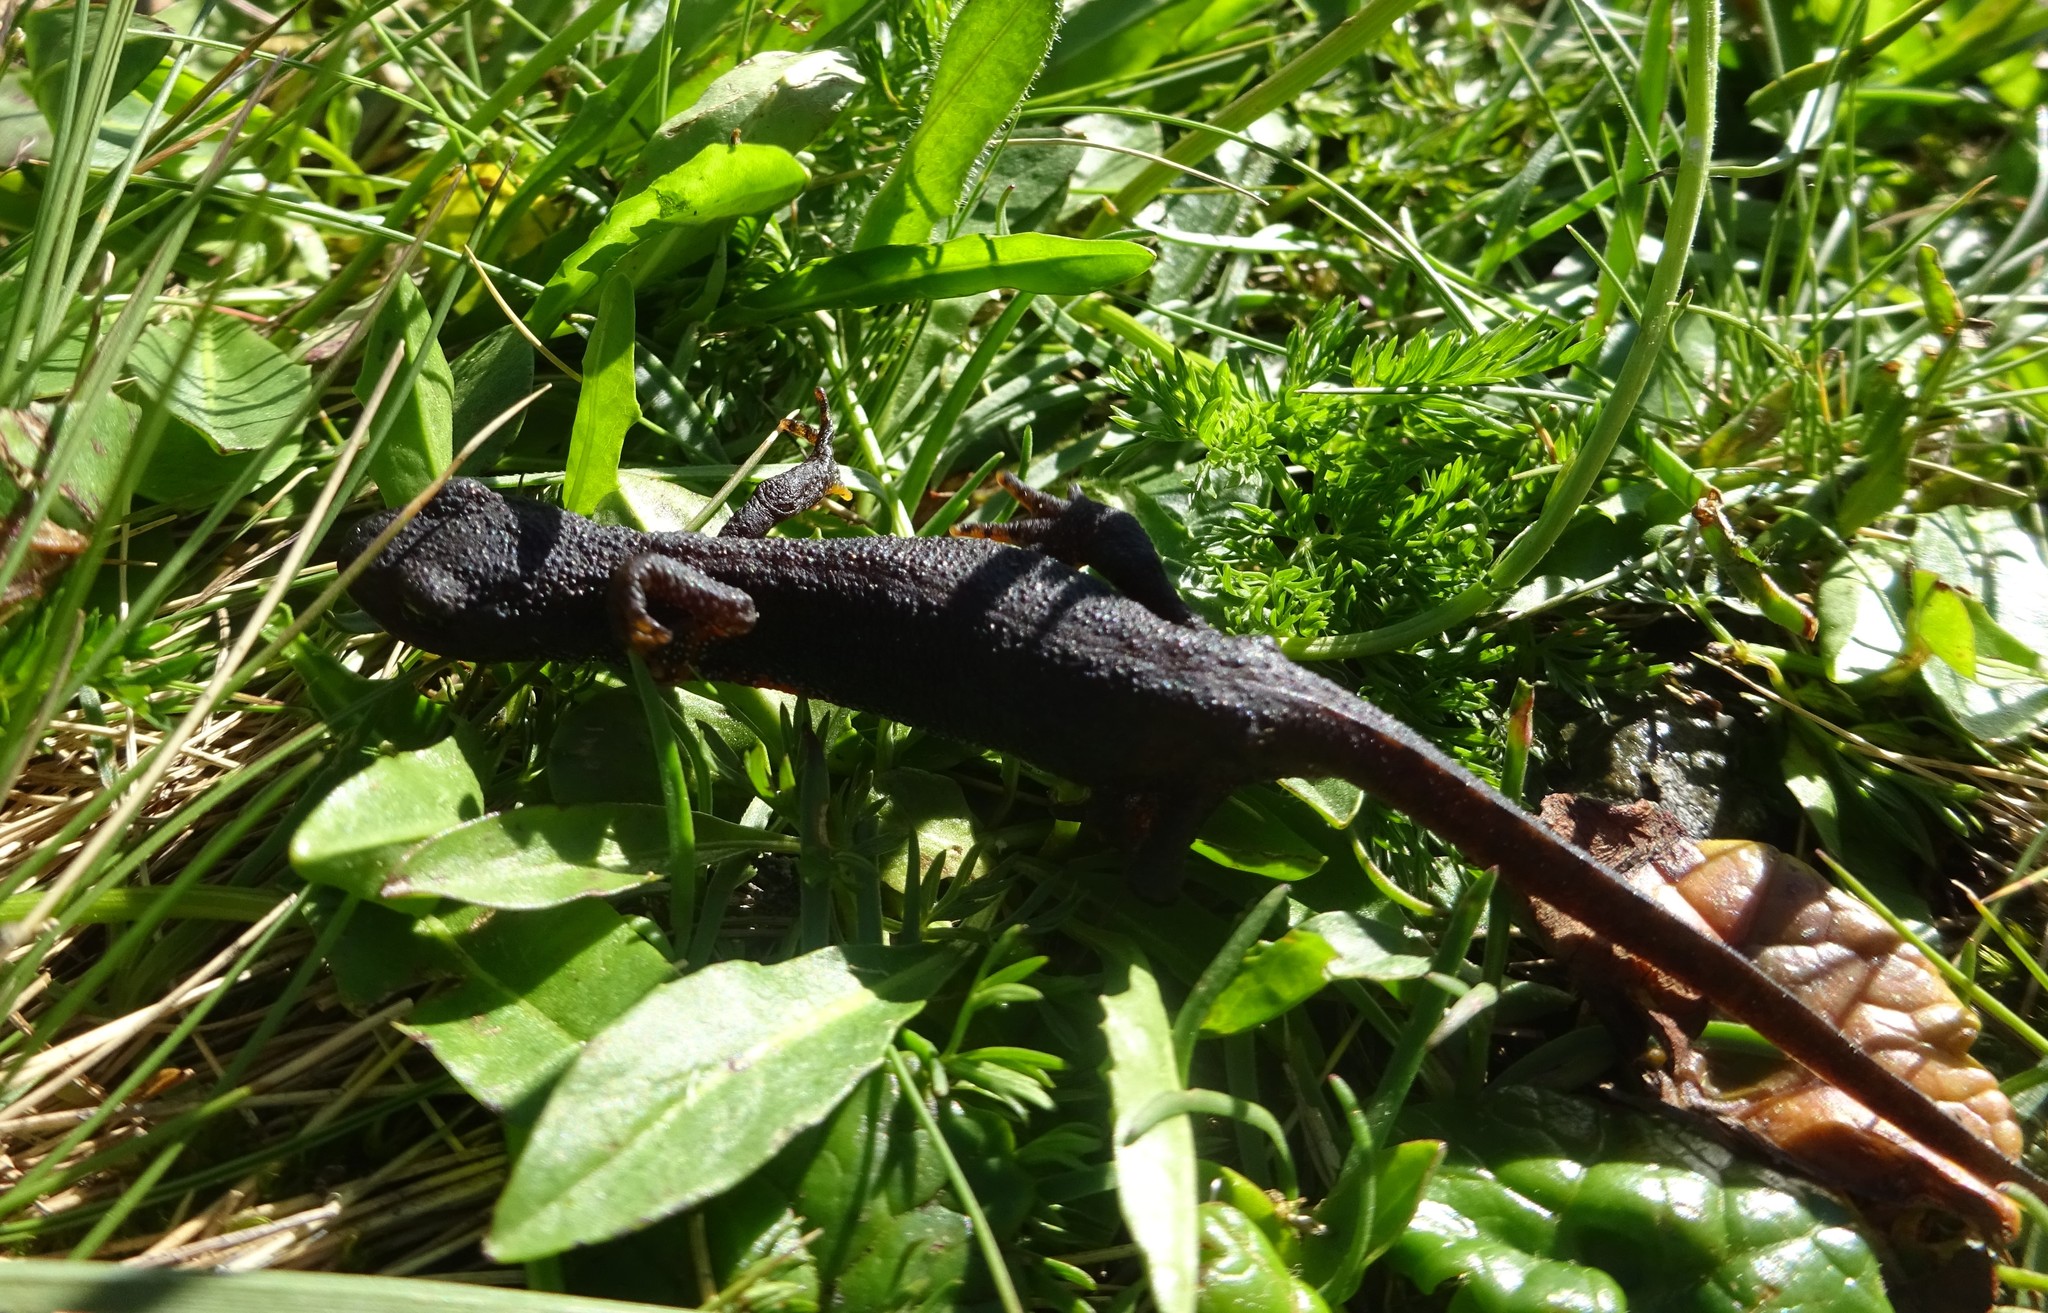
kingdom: Animalia
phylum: Chordata
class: Amphibia
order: Caudata
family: Salamandridae
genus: Ichthyosaura
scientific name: Ichthyosaura alpestris
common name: Alpine newt
